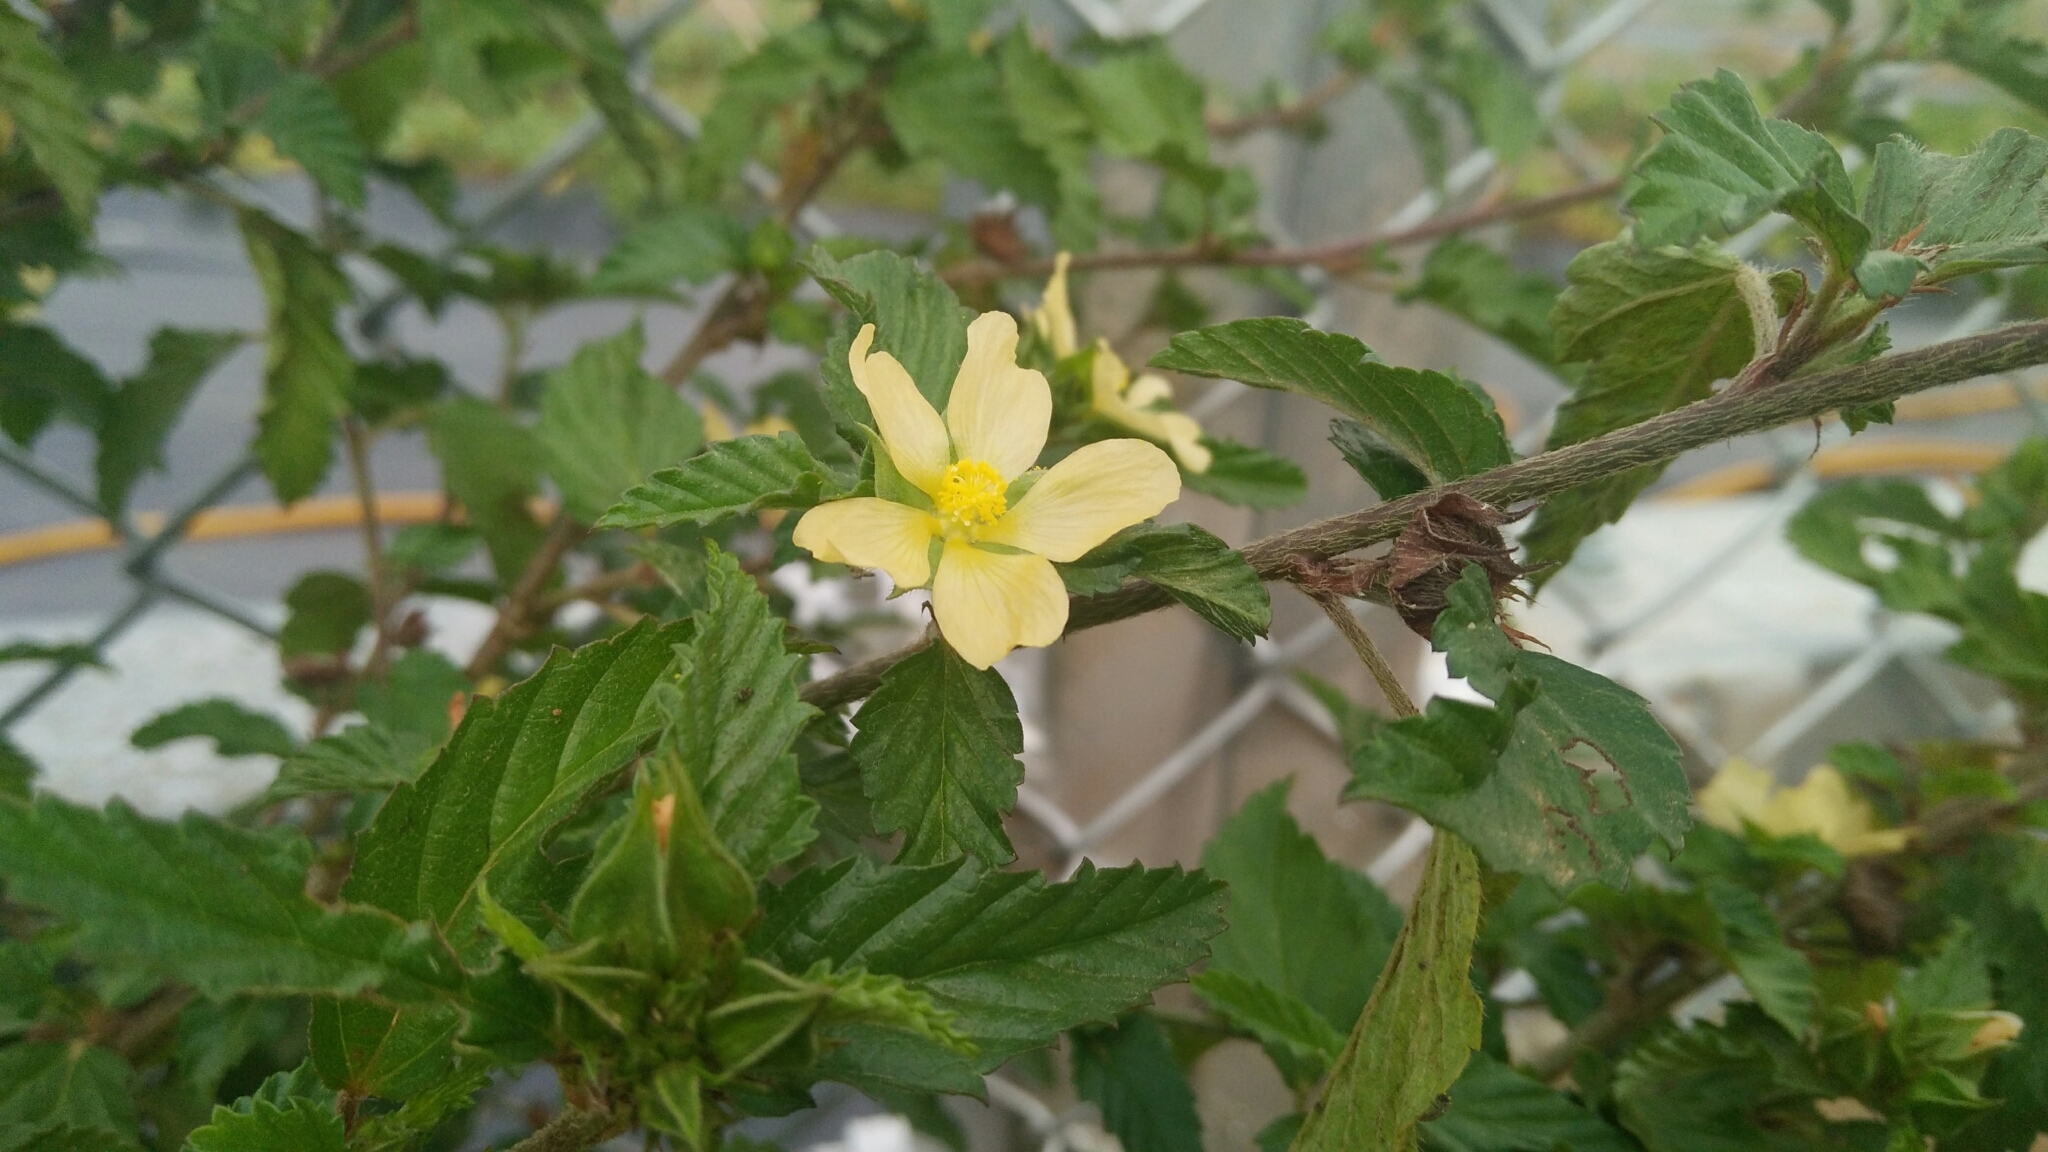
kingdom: Plantae
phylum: Tracheophyta
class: Magnoliopsida
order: Malvales
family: Malvaceae
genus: Malvastrum
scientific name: Malvastrum coromandelianum
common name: Threelobe false mallow
